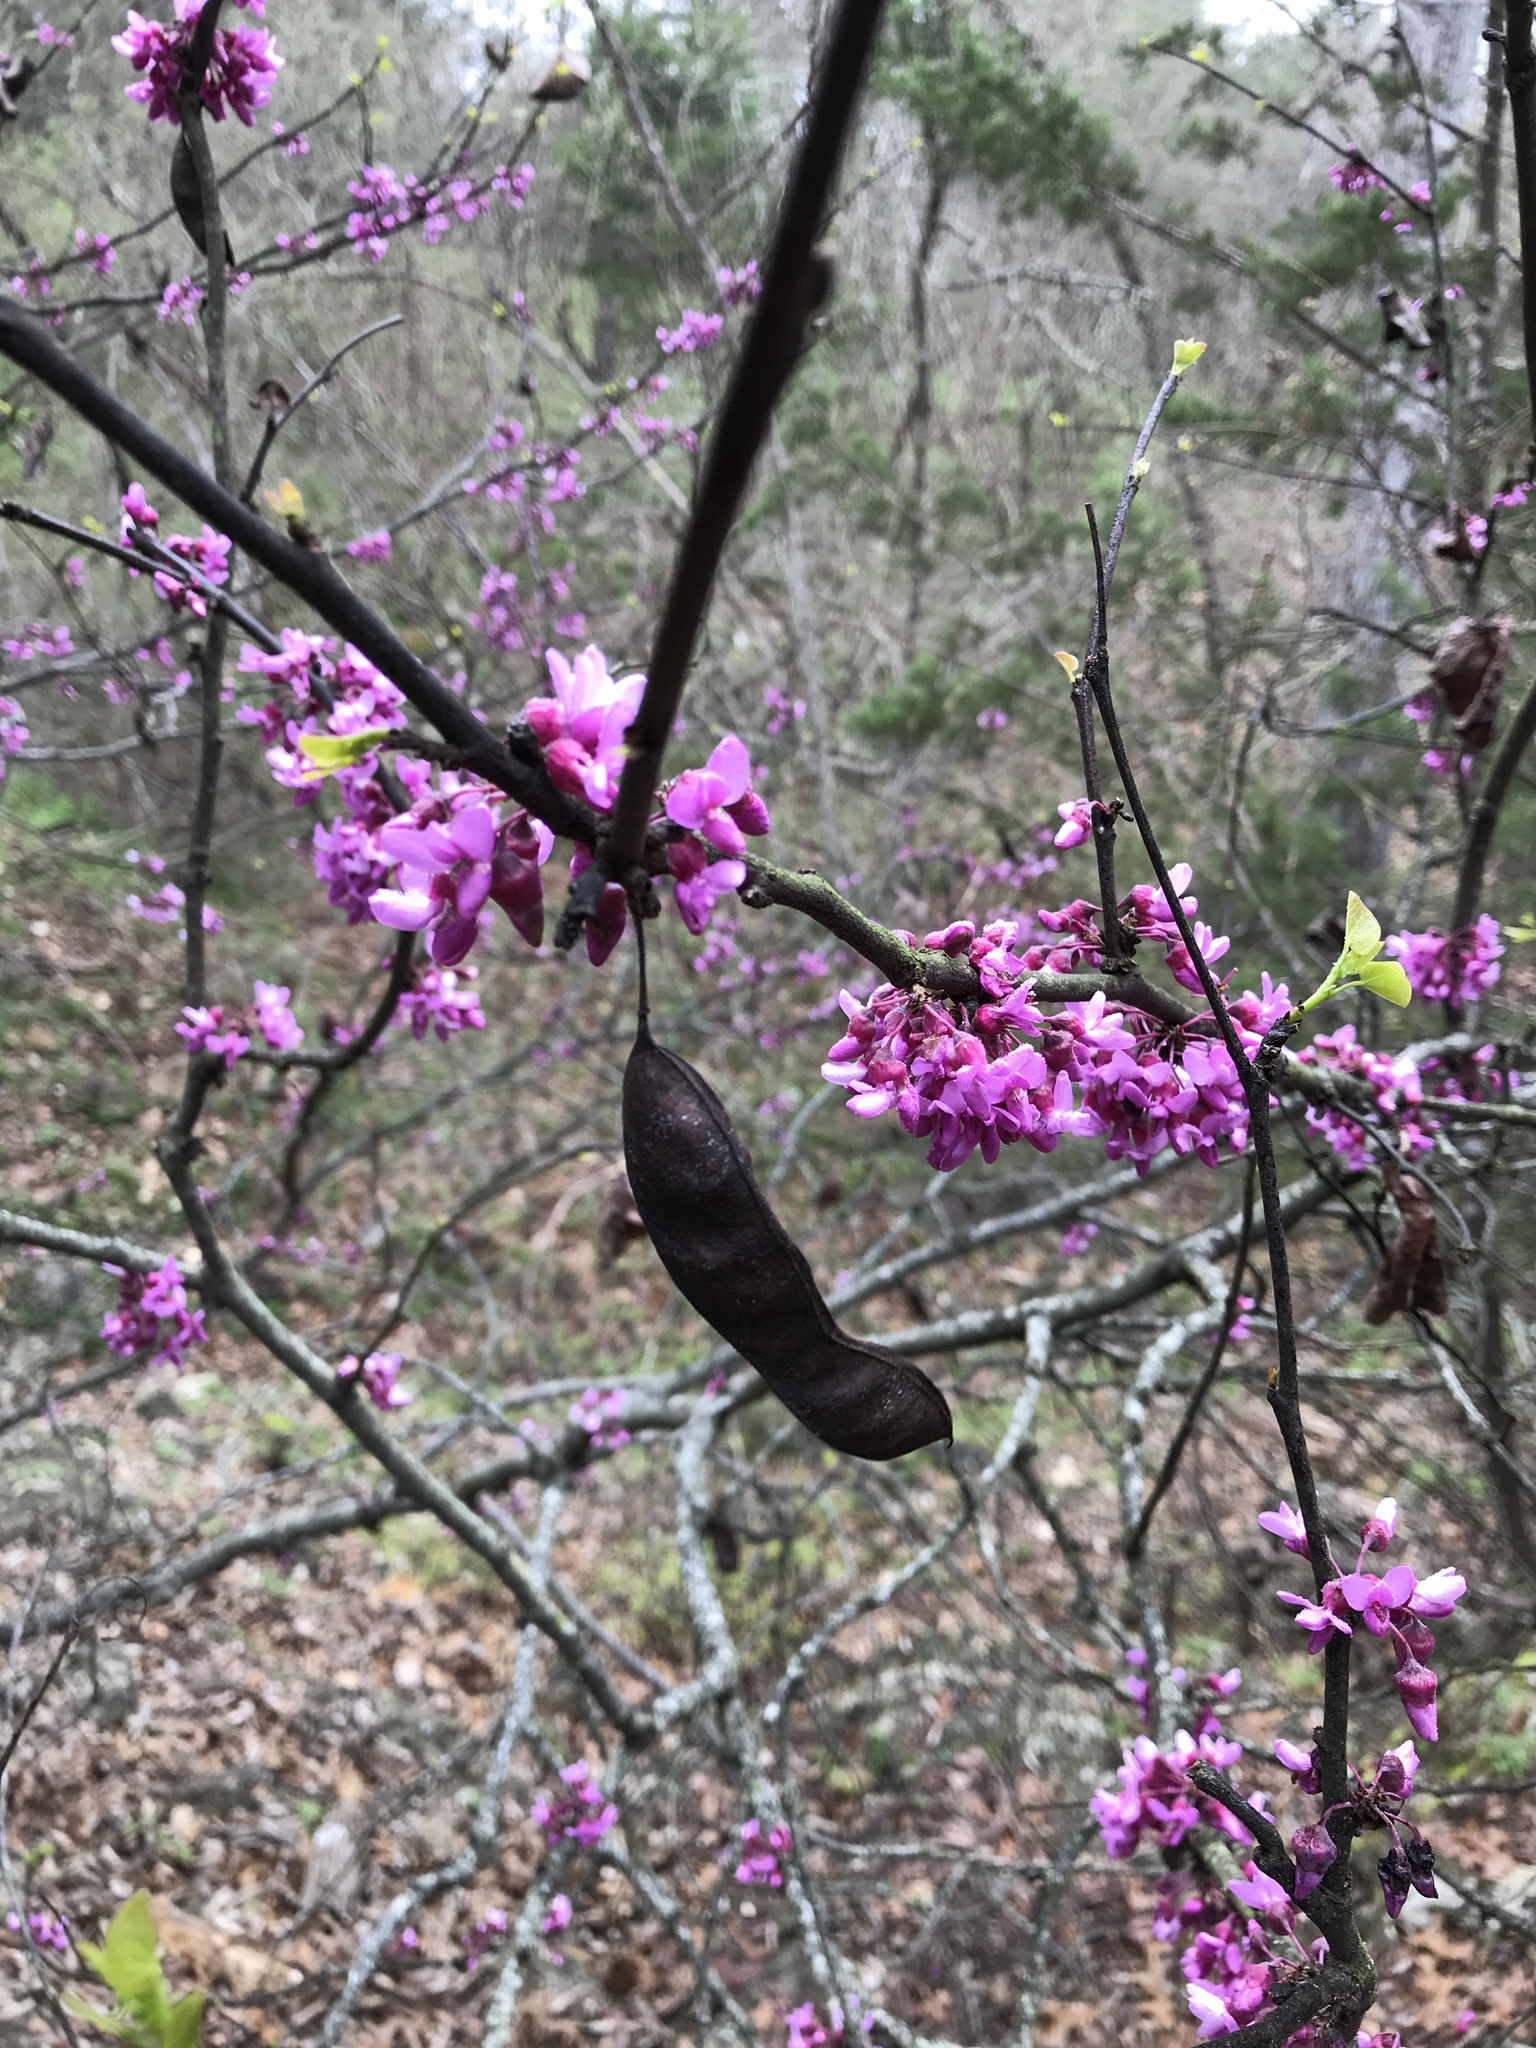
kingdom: Plantae
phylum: Tracheophyta
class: Magnoliopsida
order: Fabales
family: Fabaceae
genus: Cercis
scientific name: Cercis canadensis
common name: Eastern redbud
